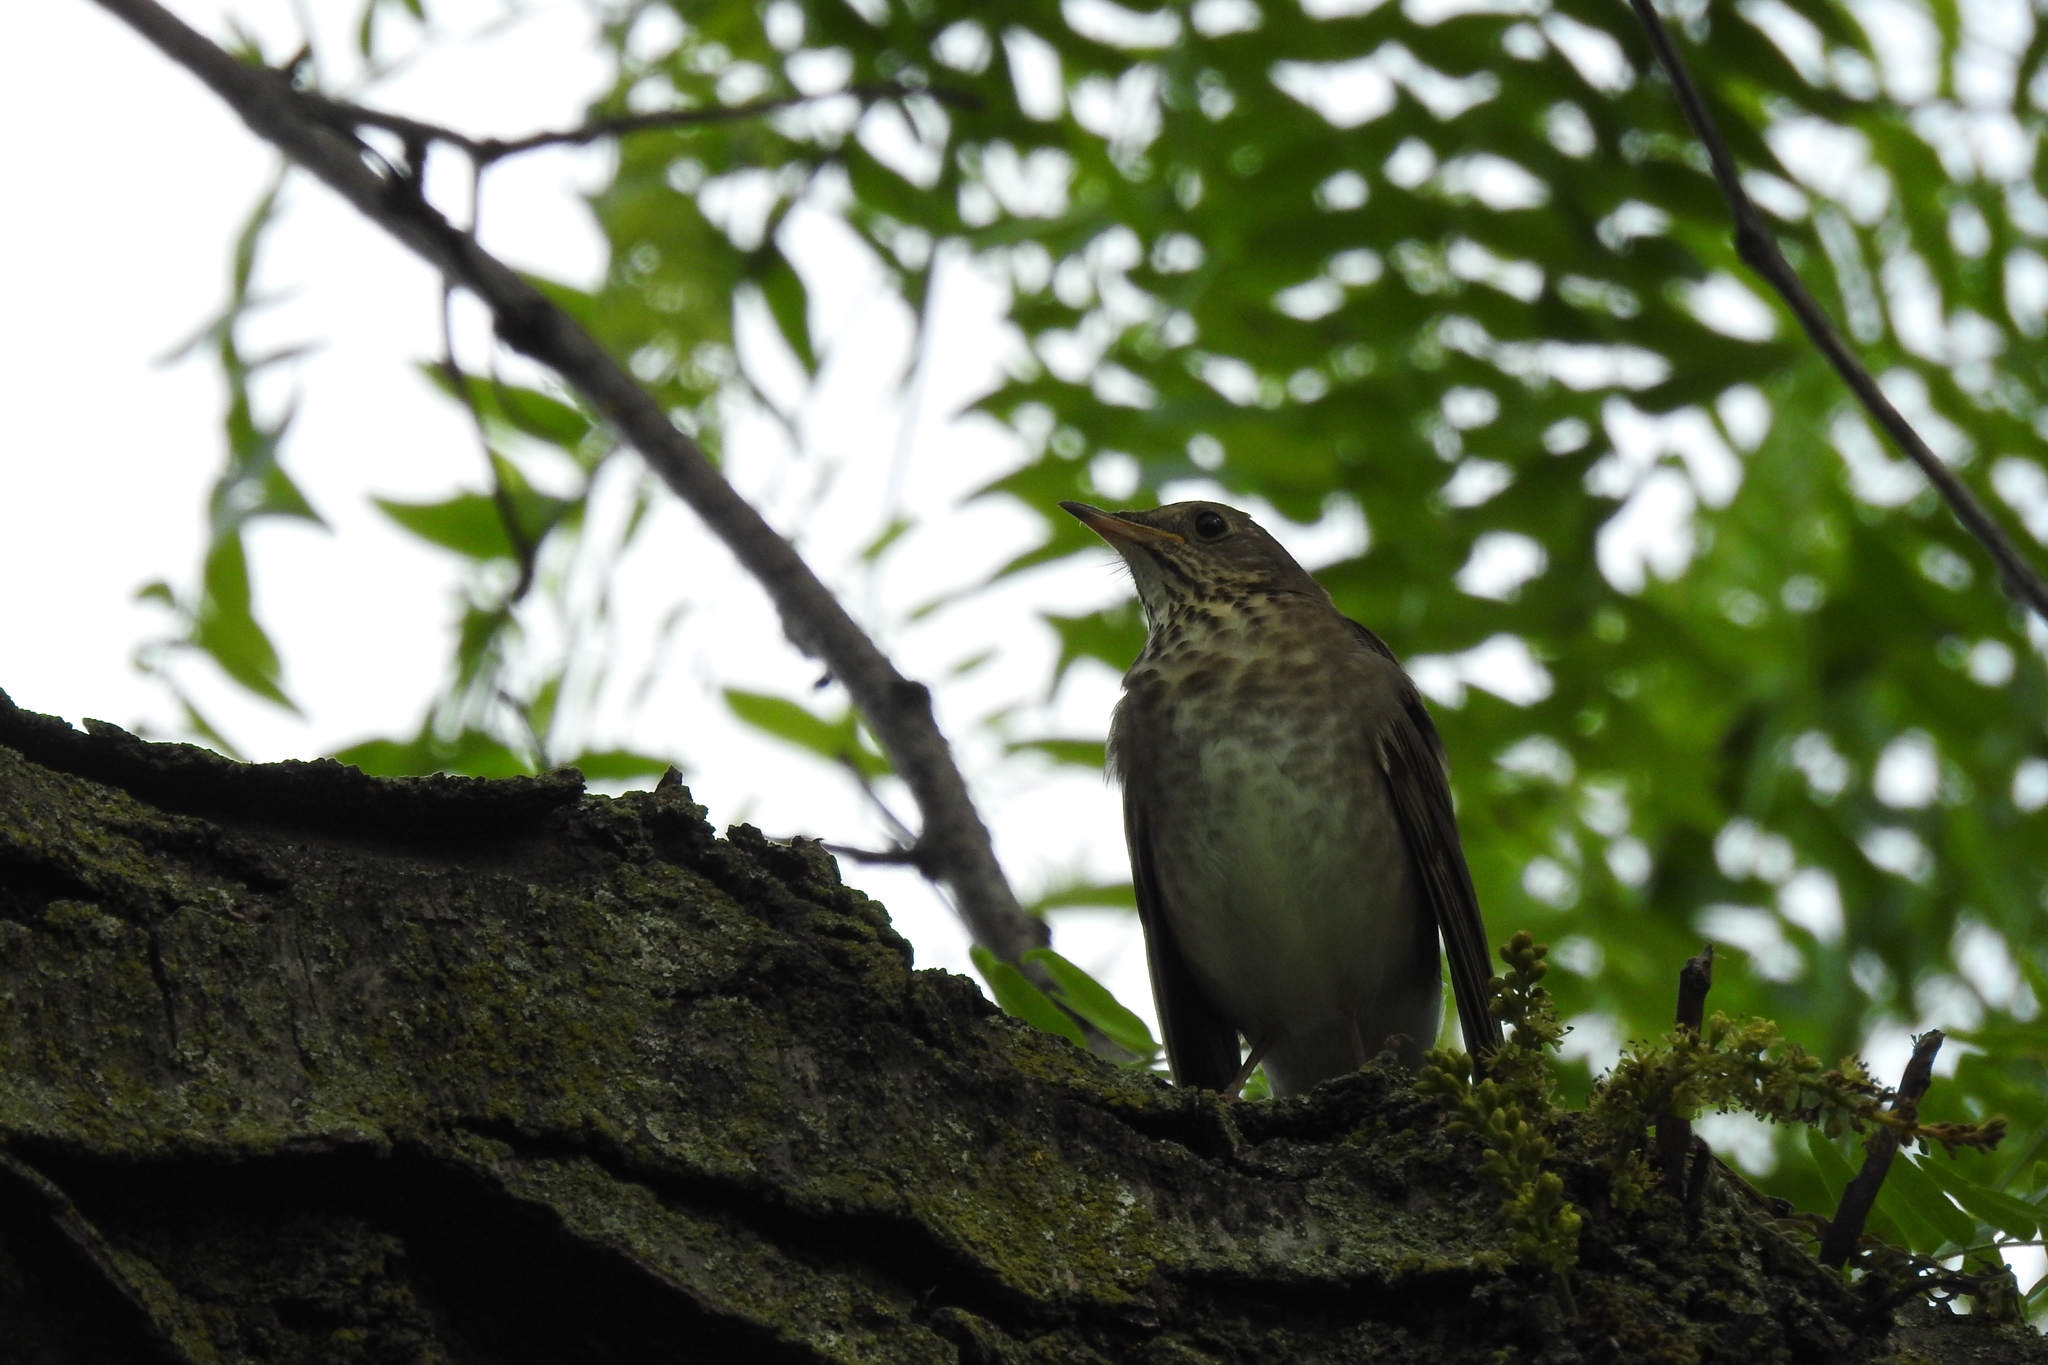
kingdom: Animalia
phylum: Chordata
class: Aves
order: Passeriformes
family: Turdidae
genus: Catharus
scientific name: Catharus minimus
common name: Grey-cheeked thrush
